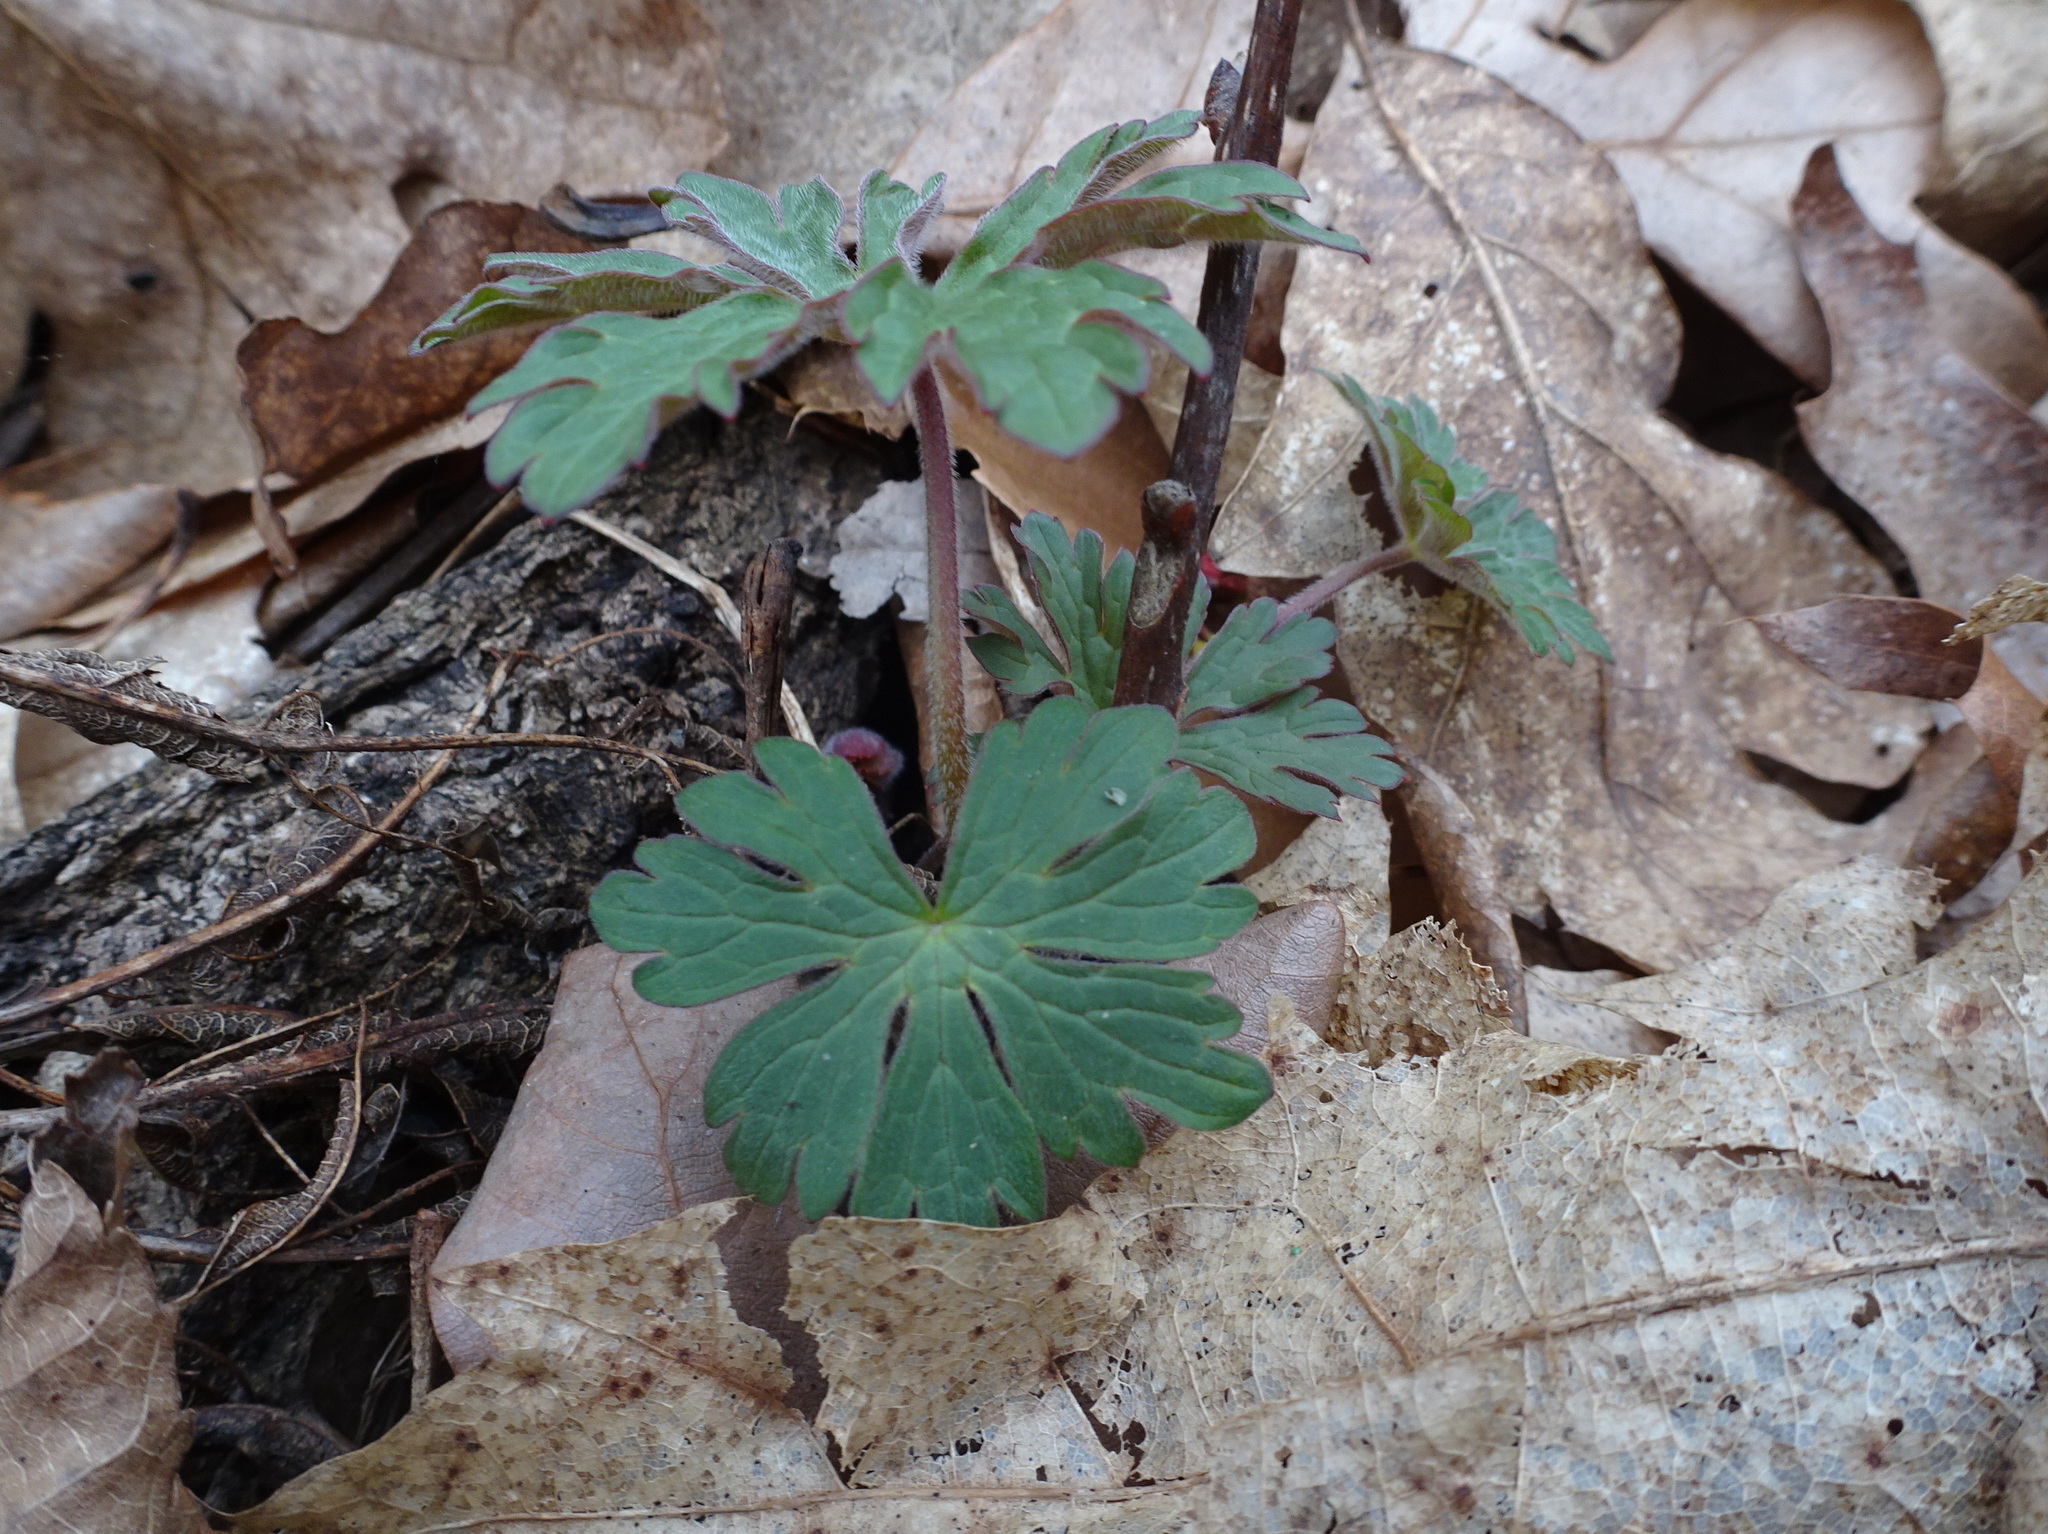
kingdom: Plantae
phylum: Tracheophyta
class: Magnoliopsida
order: Geraniales
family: Geraniaceae
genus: Geranium
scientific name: Geranium maculatum
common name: Spotted geranium
